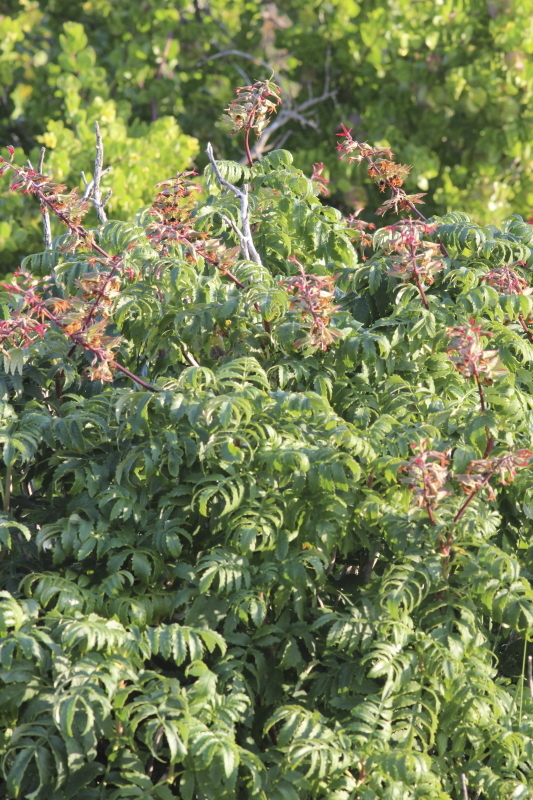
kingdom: Plantae
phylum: Tracheophyta
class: Magnoliopsida
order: Geraniales
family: Melianthaceae
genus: Melianthus
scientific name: Melianthus elongatus
